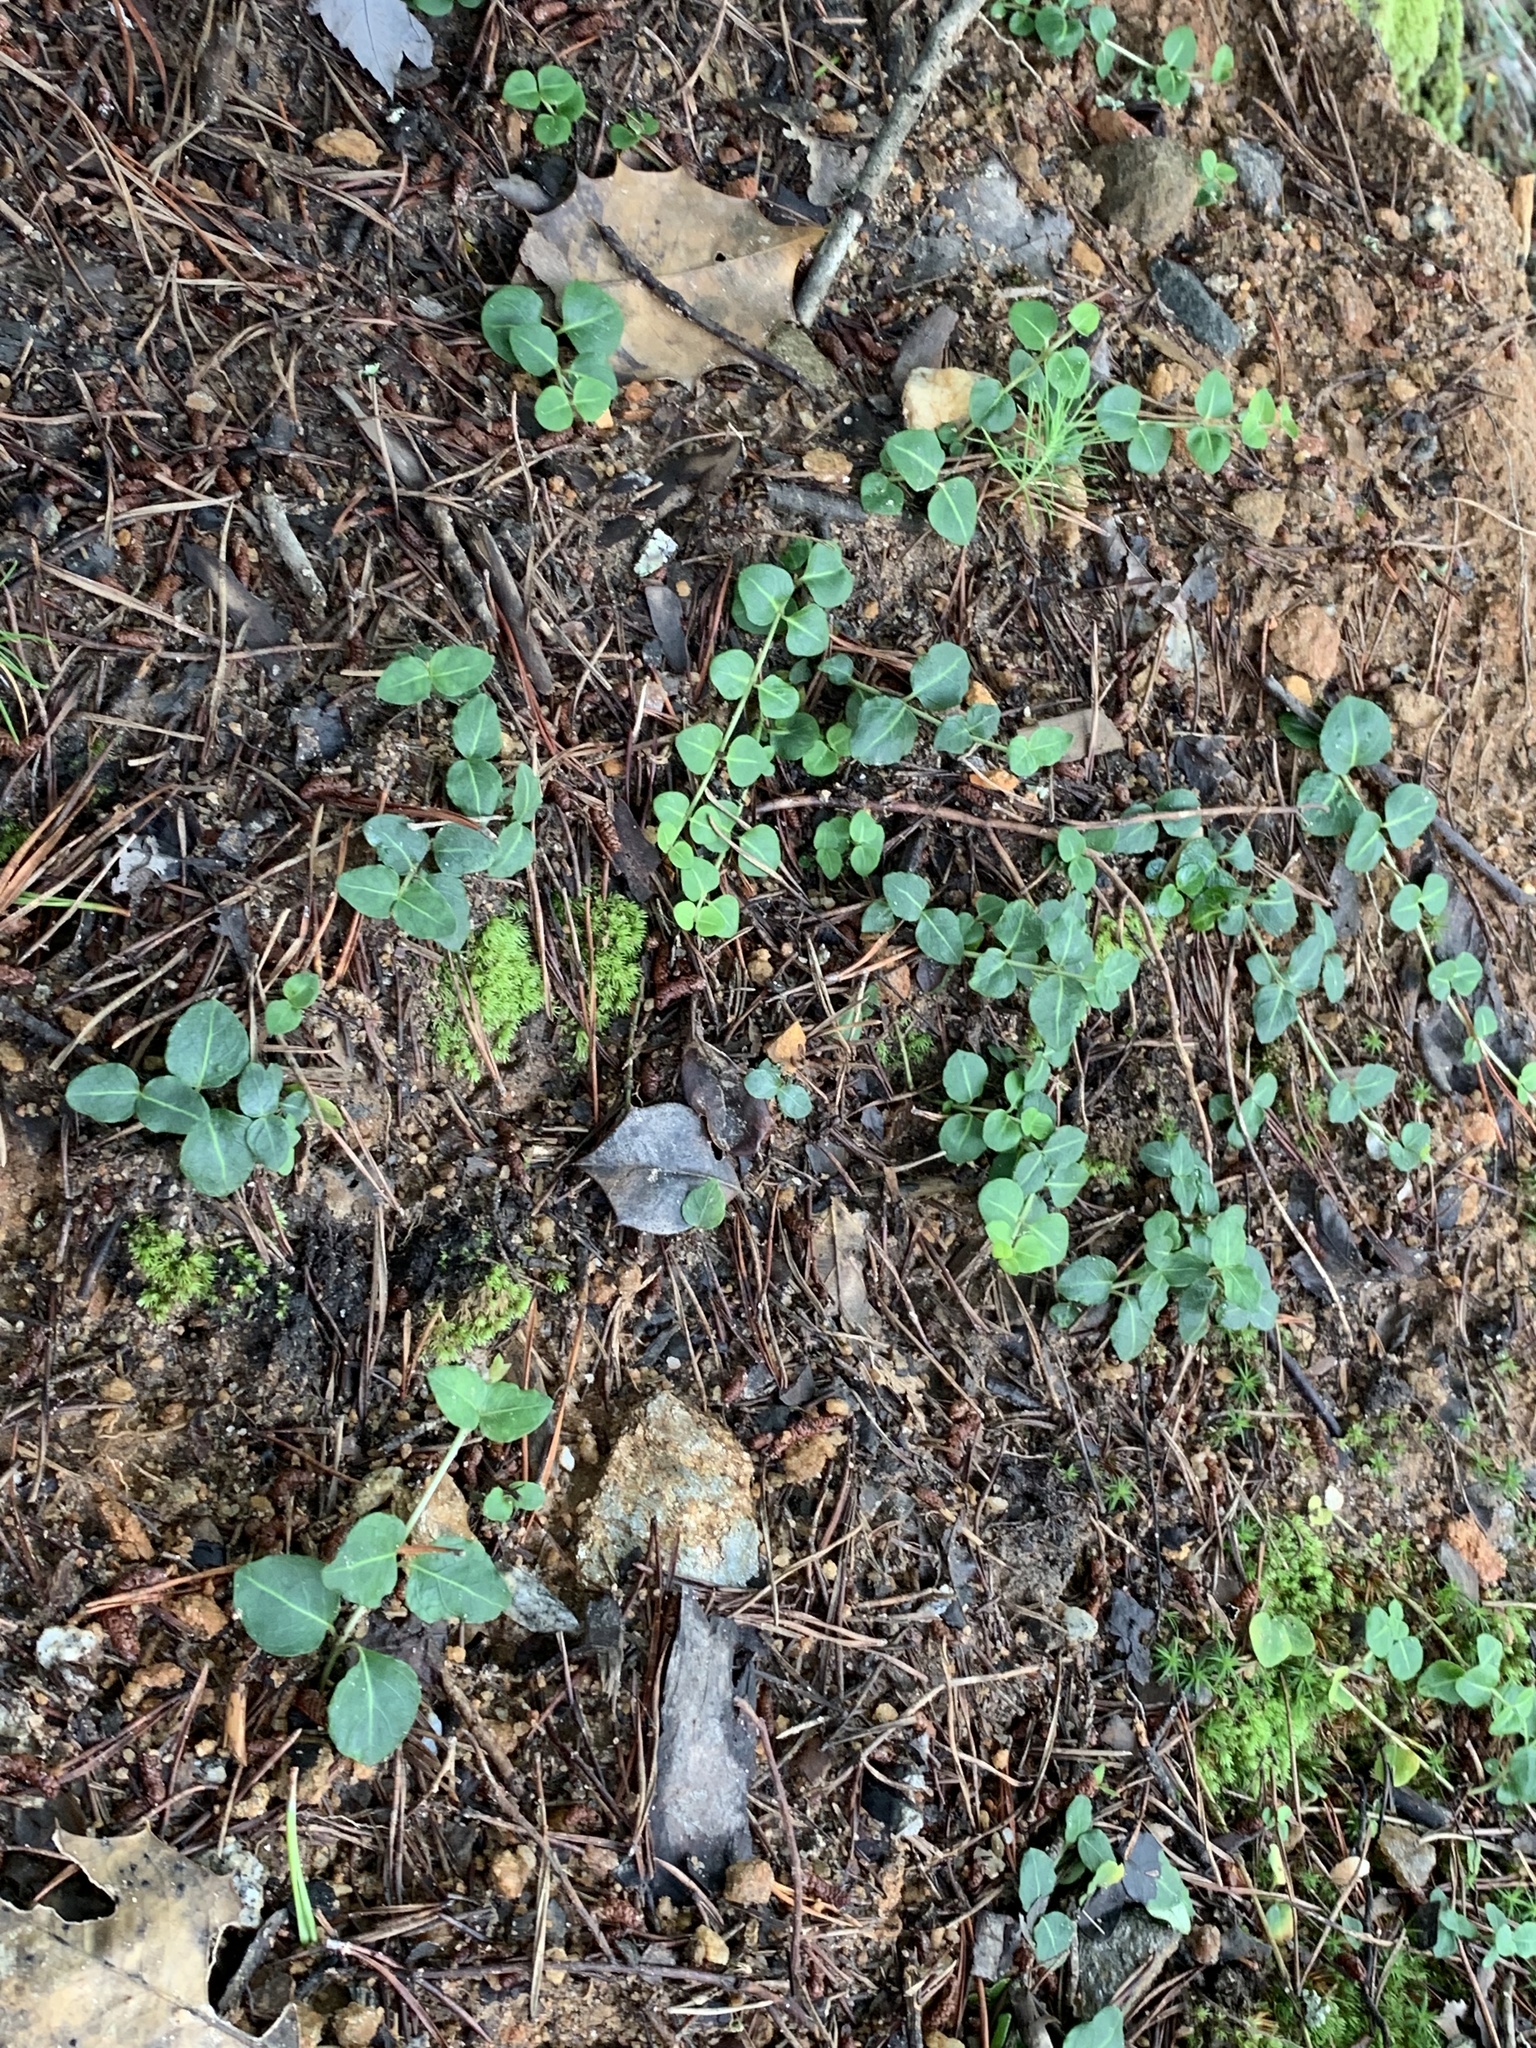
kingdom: Plantae
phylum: Tracheophyta
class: Magnoliopsida
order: Gentianales
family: Rubiaceae
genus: Mitchella
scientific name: Mitchella repens
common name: Partridge-berry
